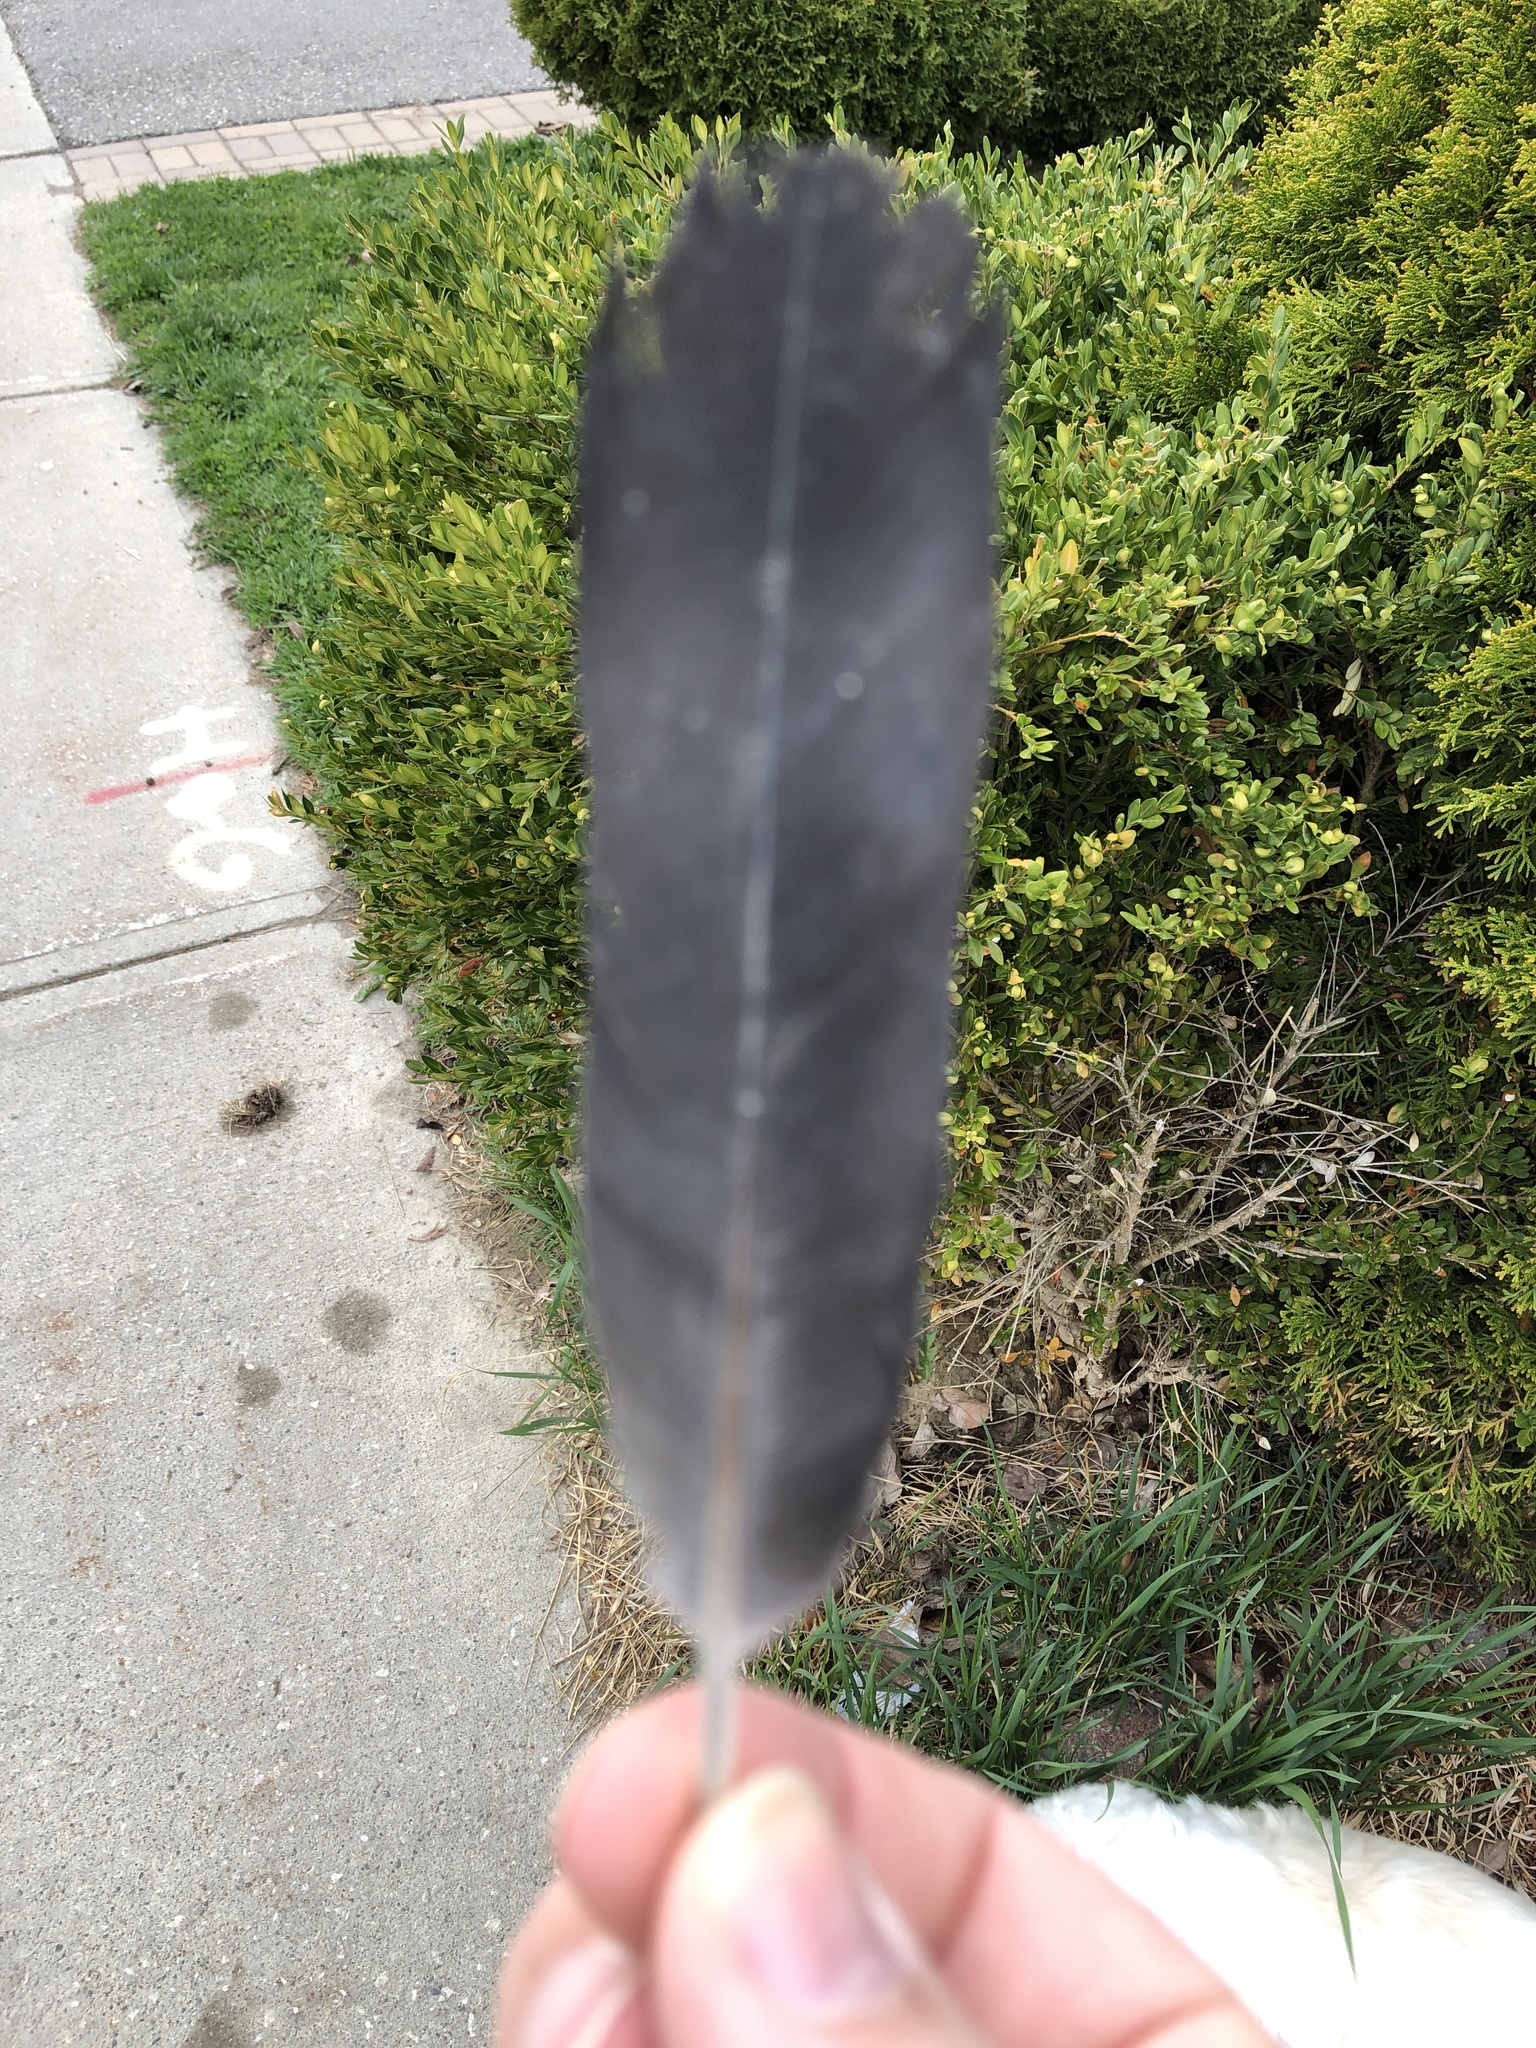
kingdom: Animalia
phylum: Chordata
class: Aves
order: Columbiformes
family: Columbidae
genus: Columba
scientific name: Columba livia
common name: Rock pigeon
